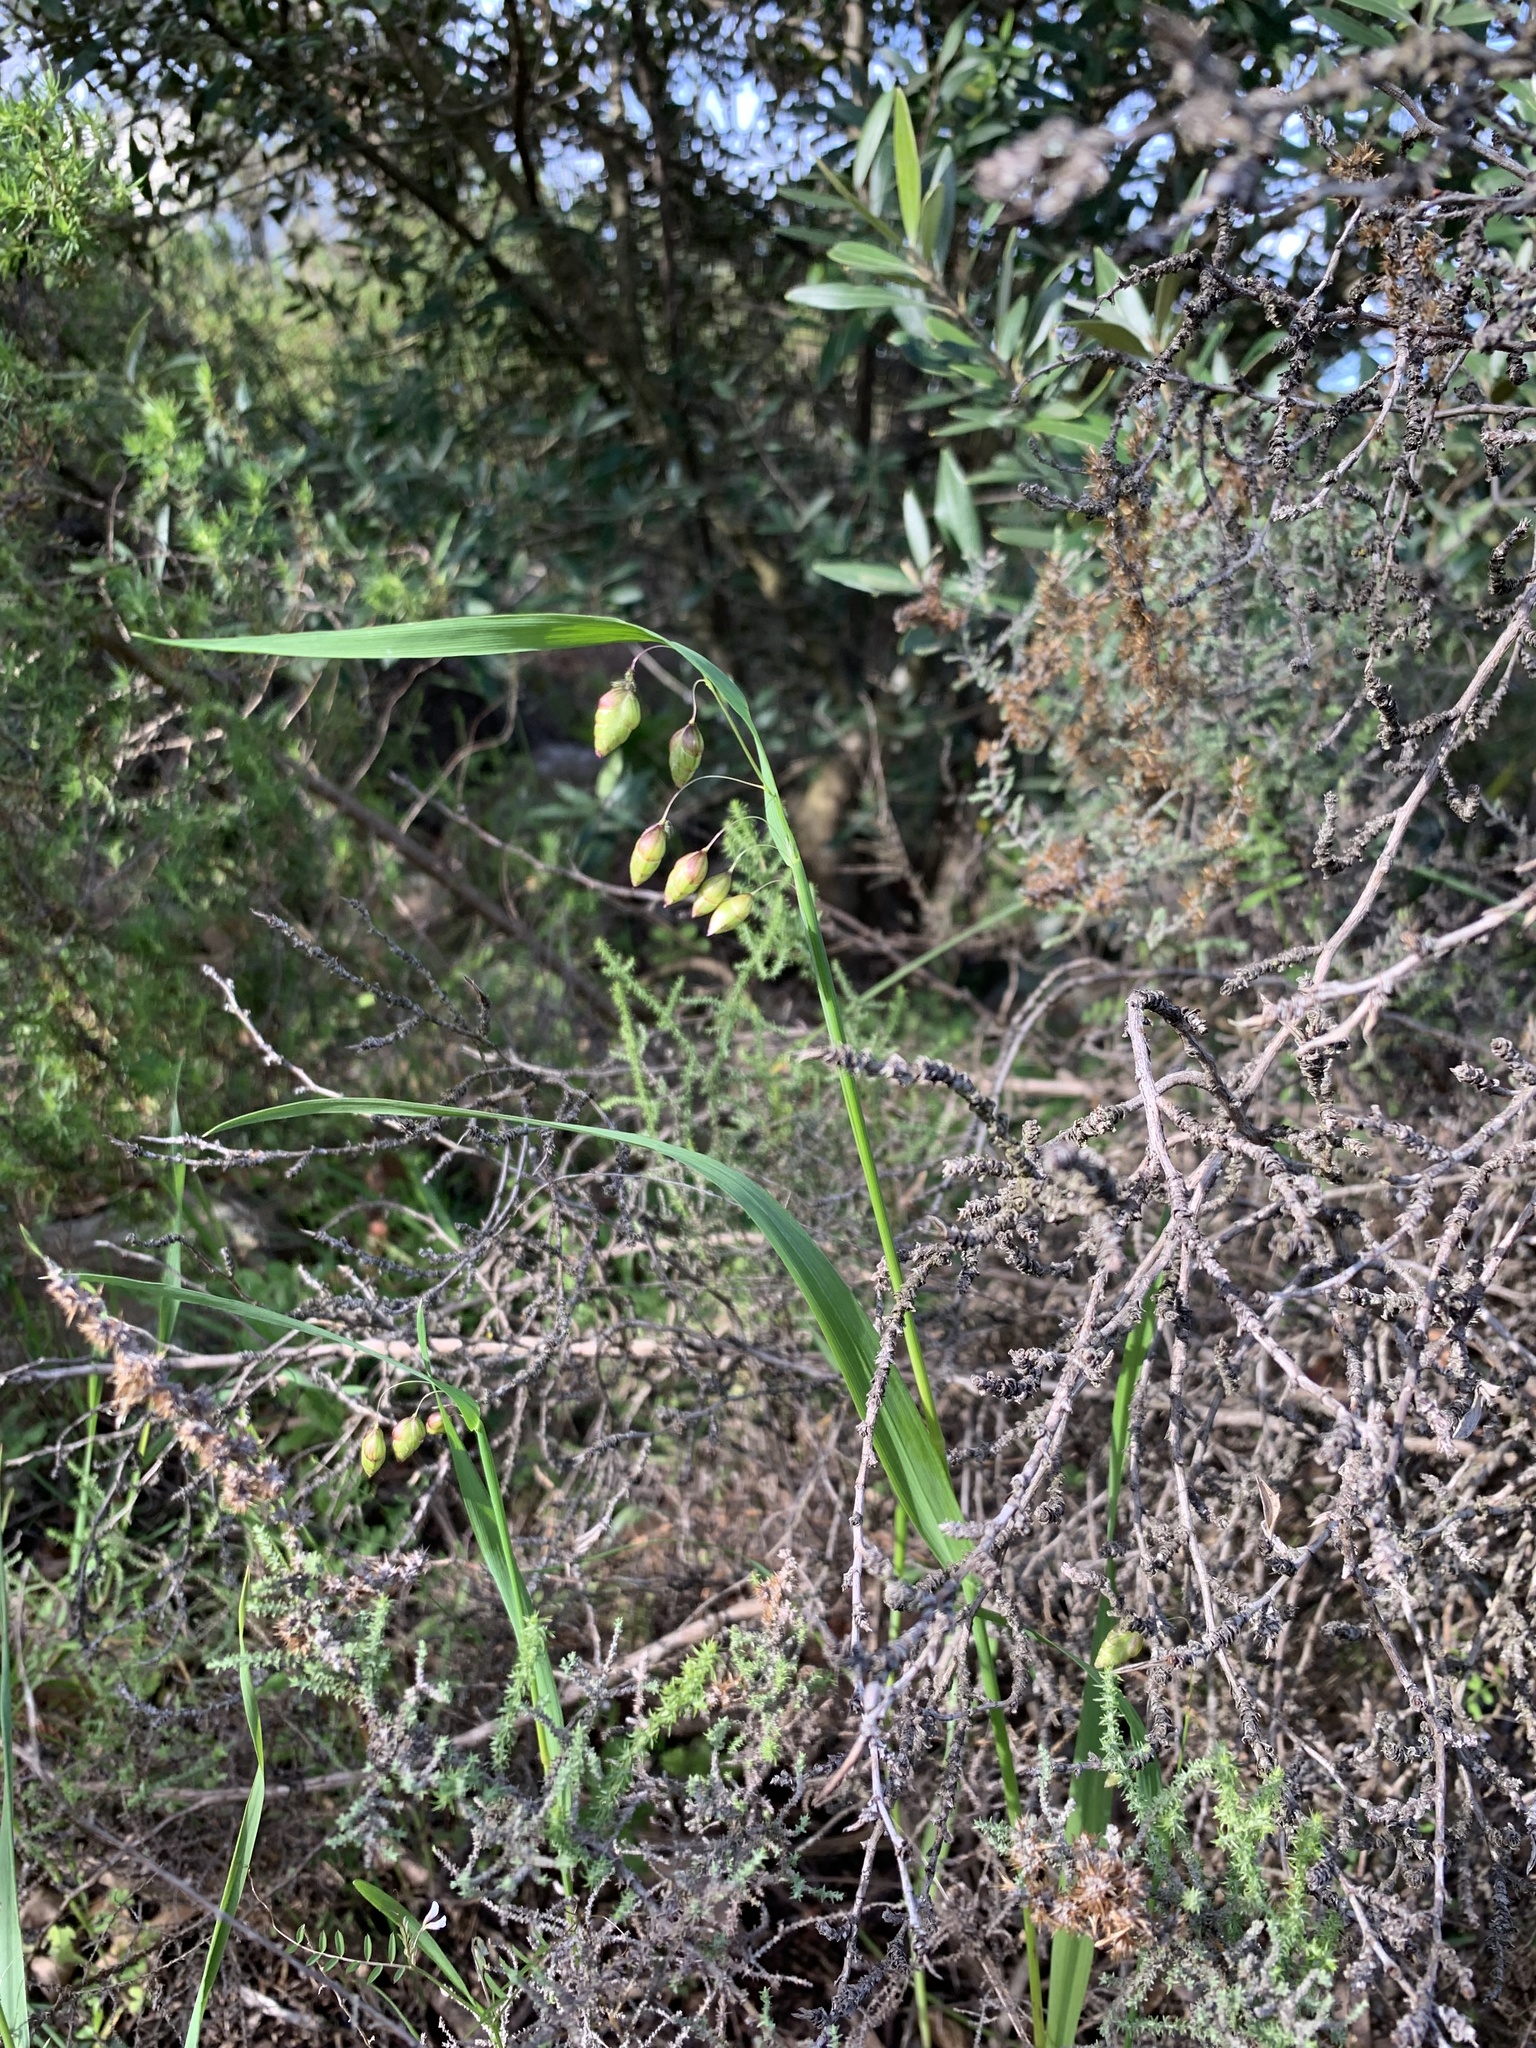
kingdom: Plantae
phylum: Tracheophyta
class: Liliopsida
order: Poales
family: Poaceae
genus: Briza
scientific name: Briza maxima
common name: Big quakinggrass
